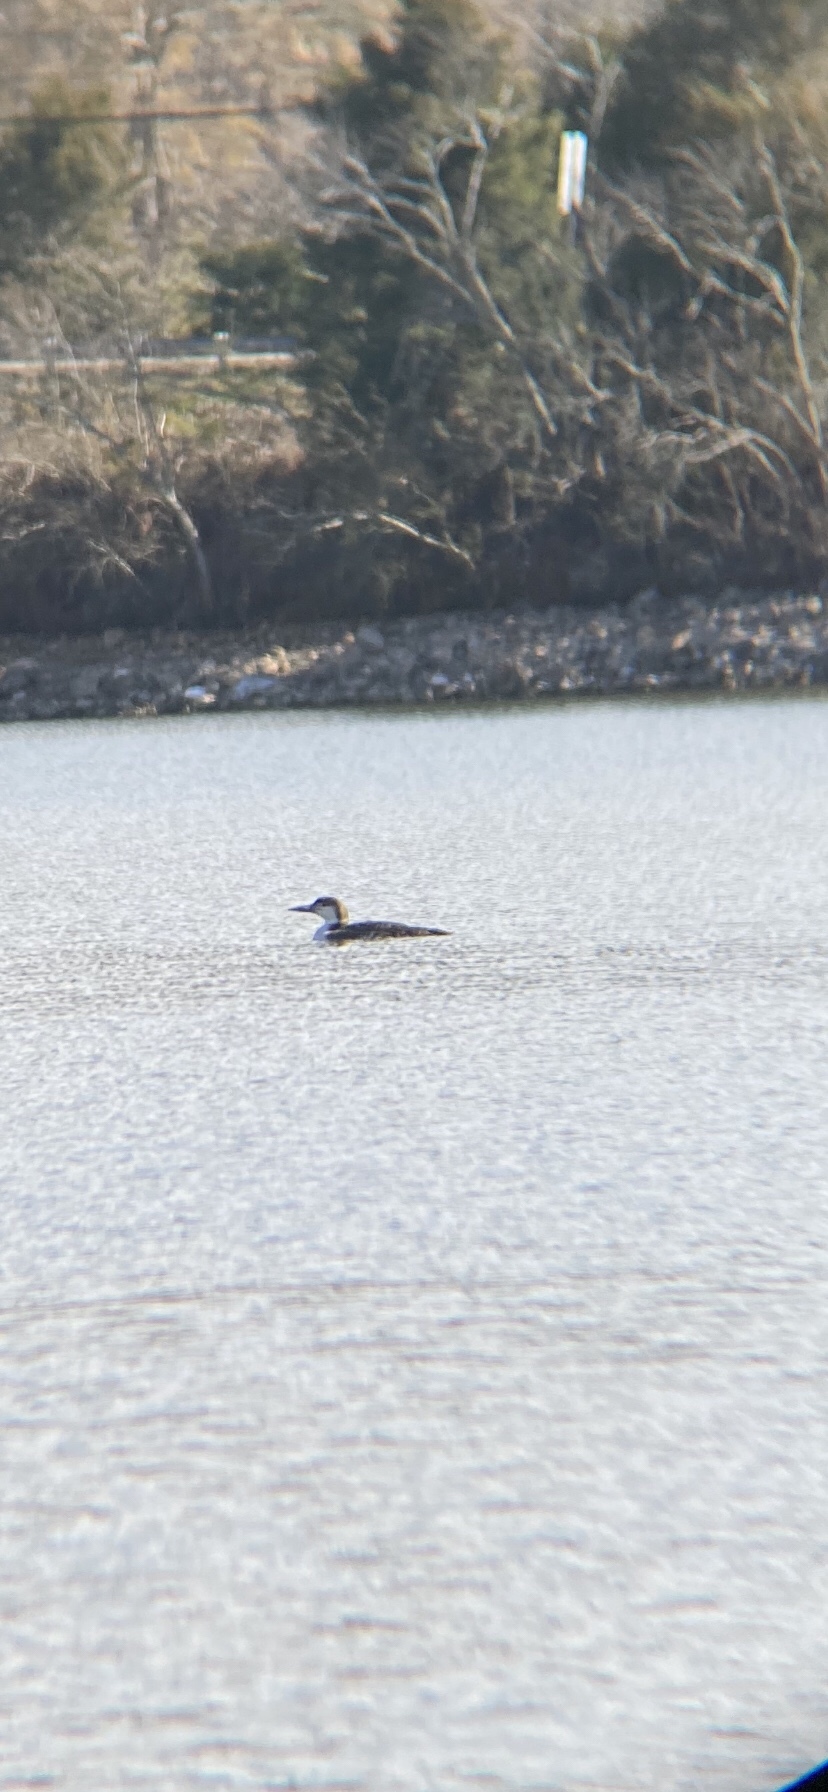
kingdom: Animalia
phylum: Chordata
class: Aves
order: Gaviiformes
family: Gaviidae
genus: Gavia
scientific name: Gavia immer
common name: Common loon
